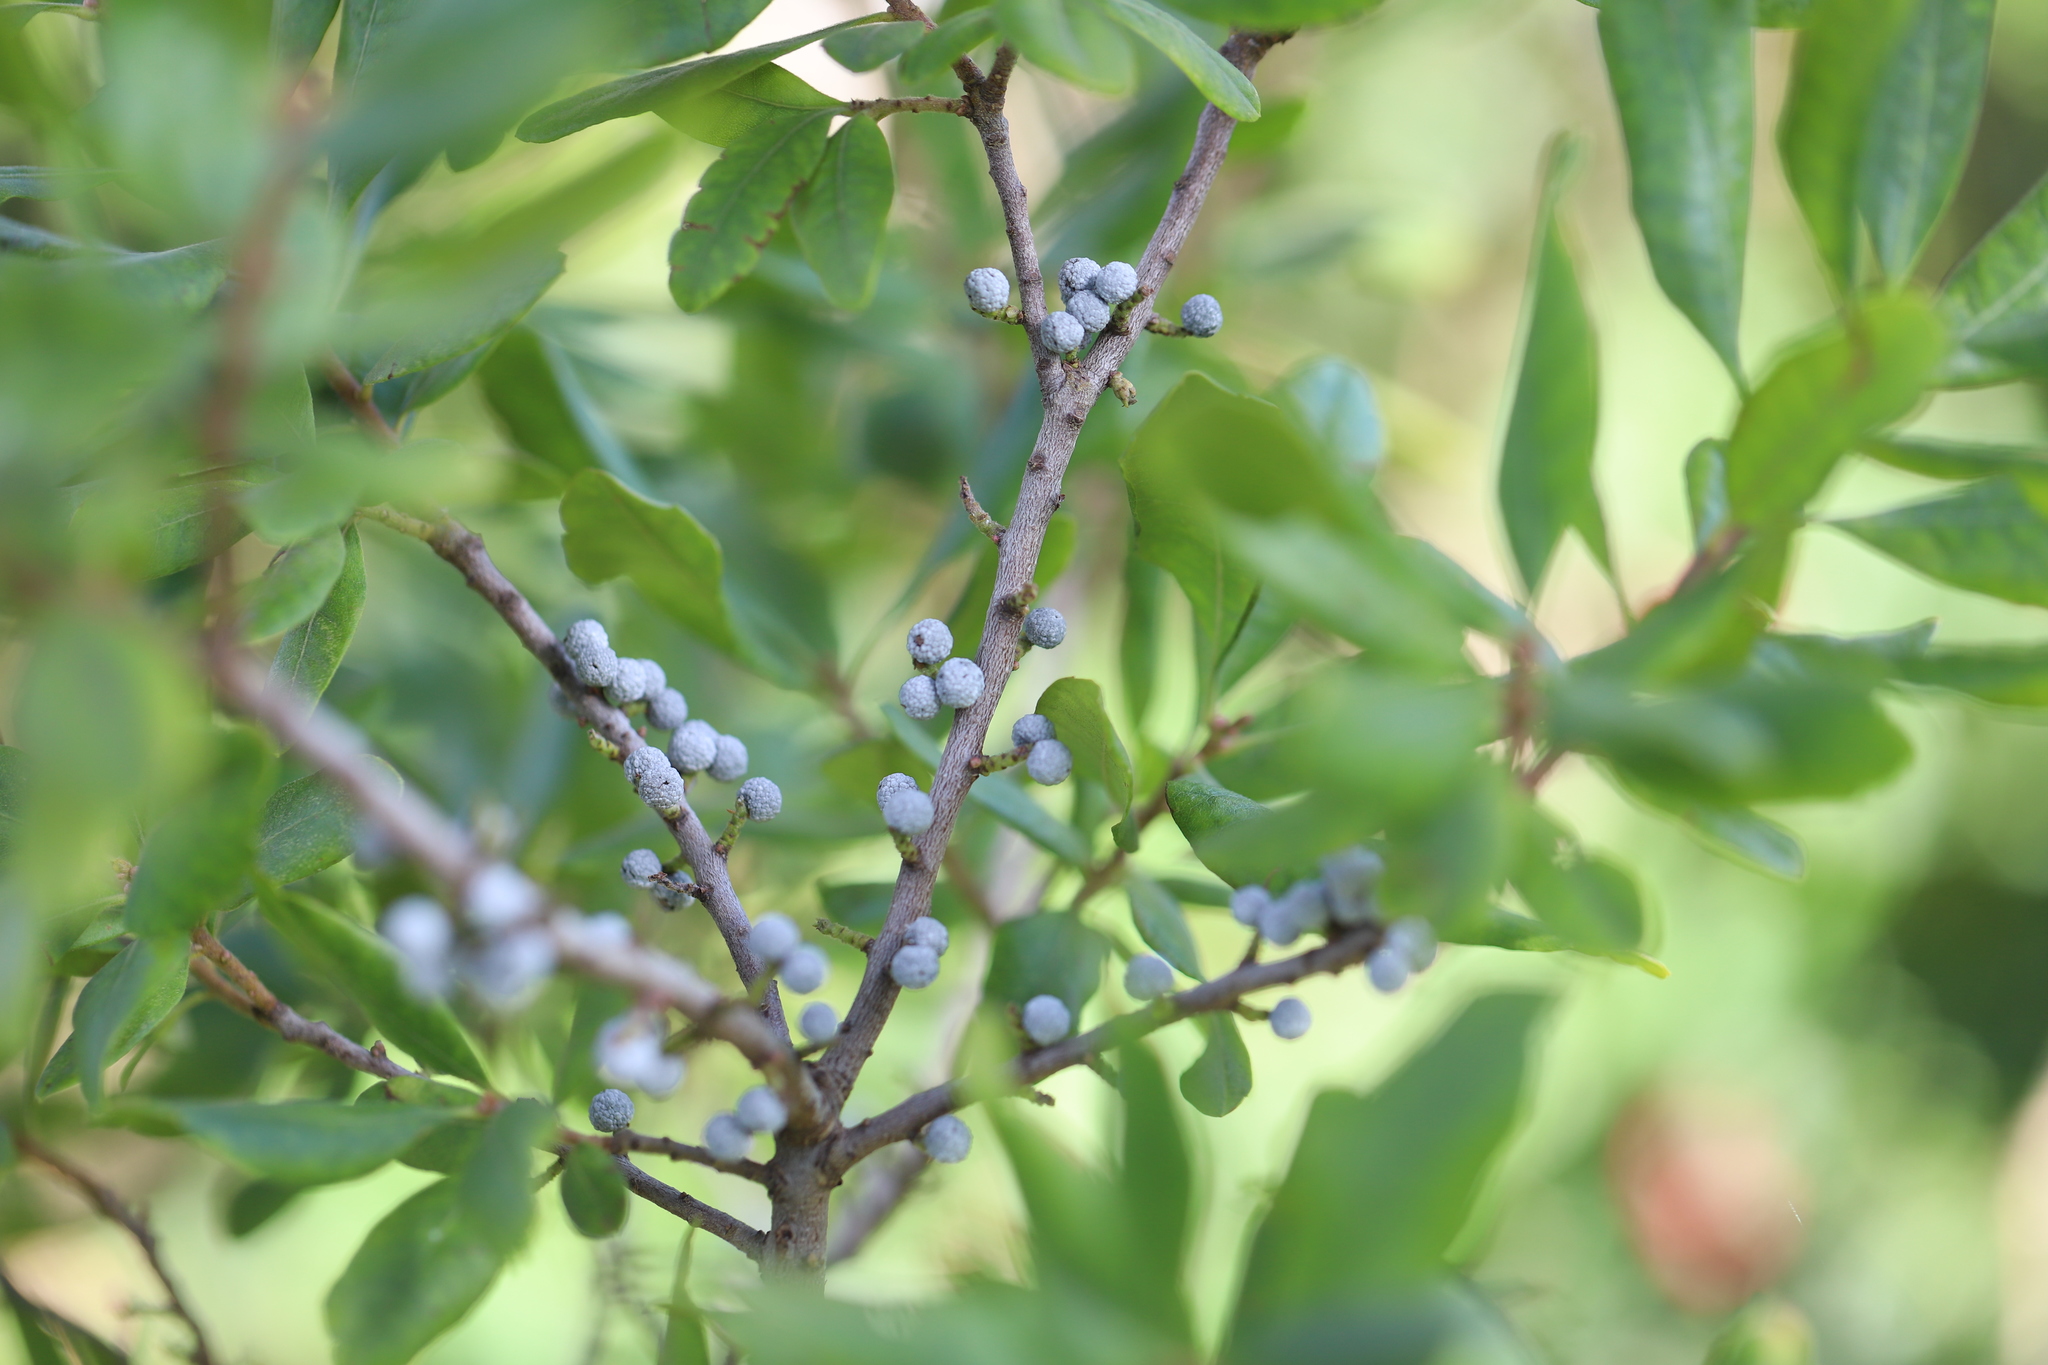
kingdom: Plantae
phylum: Tracheophyta
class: Magnoliopsida
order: Fagales
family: Myricaceae
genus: Morella
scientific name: Morella pensylvanica
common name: Northern bayberry
